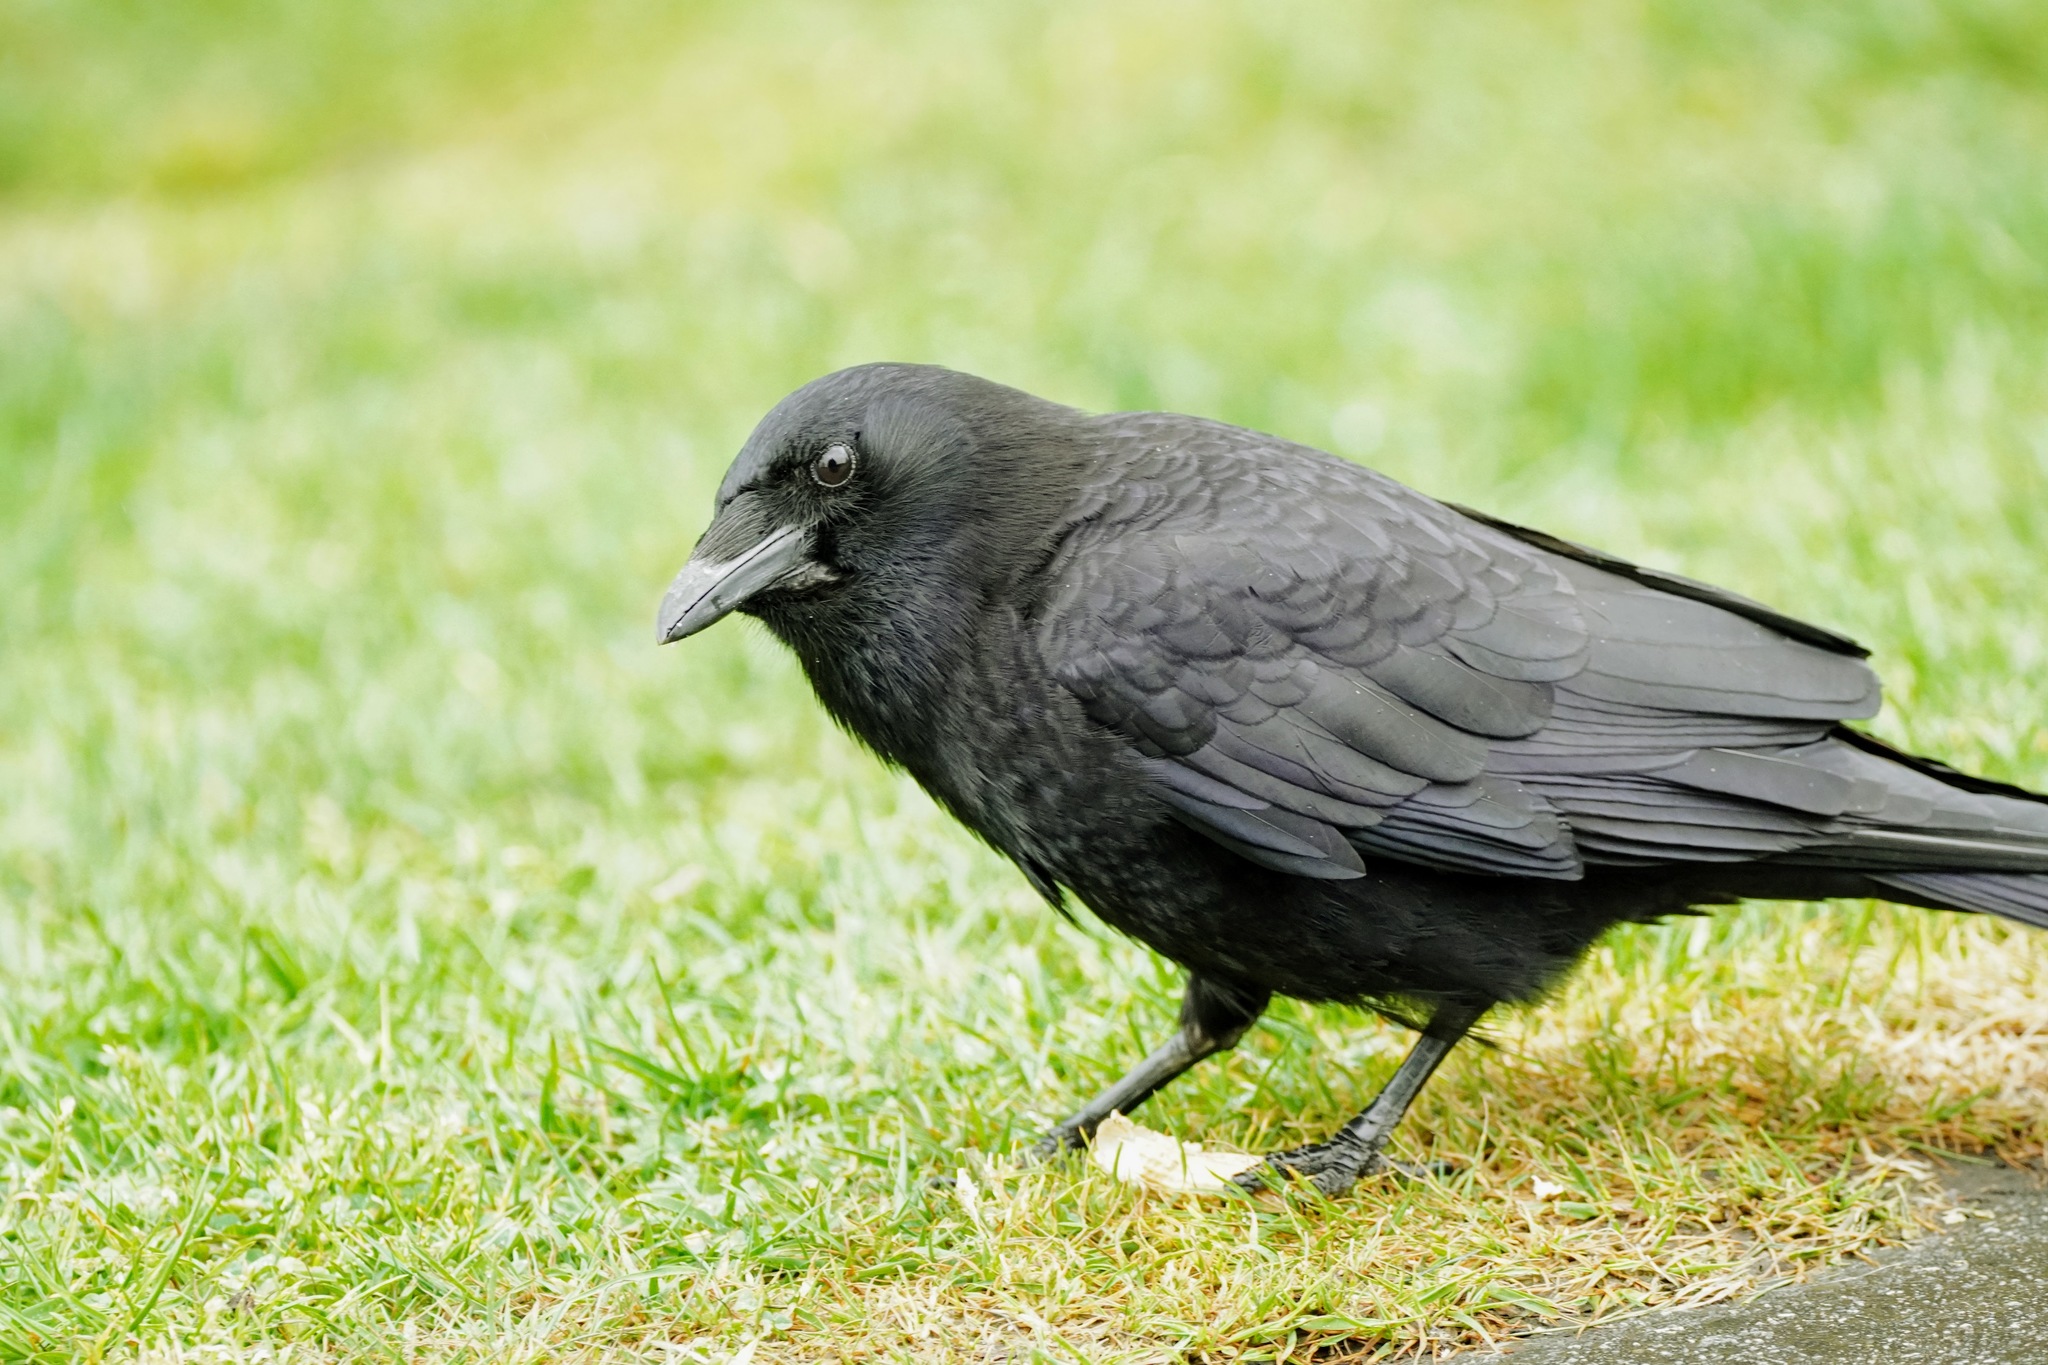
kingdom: Animalia
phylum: Chordata
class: Aves
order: Passeriformes
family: Corvidae
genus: Corvus
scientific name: Corvus brachyrhynchos
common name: American crow
